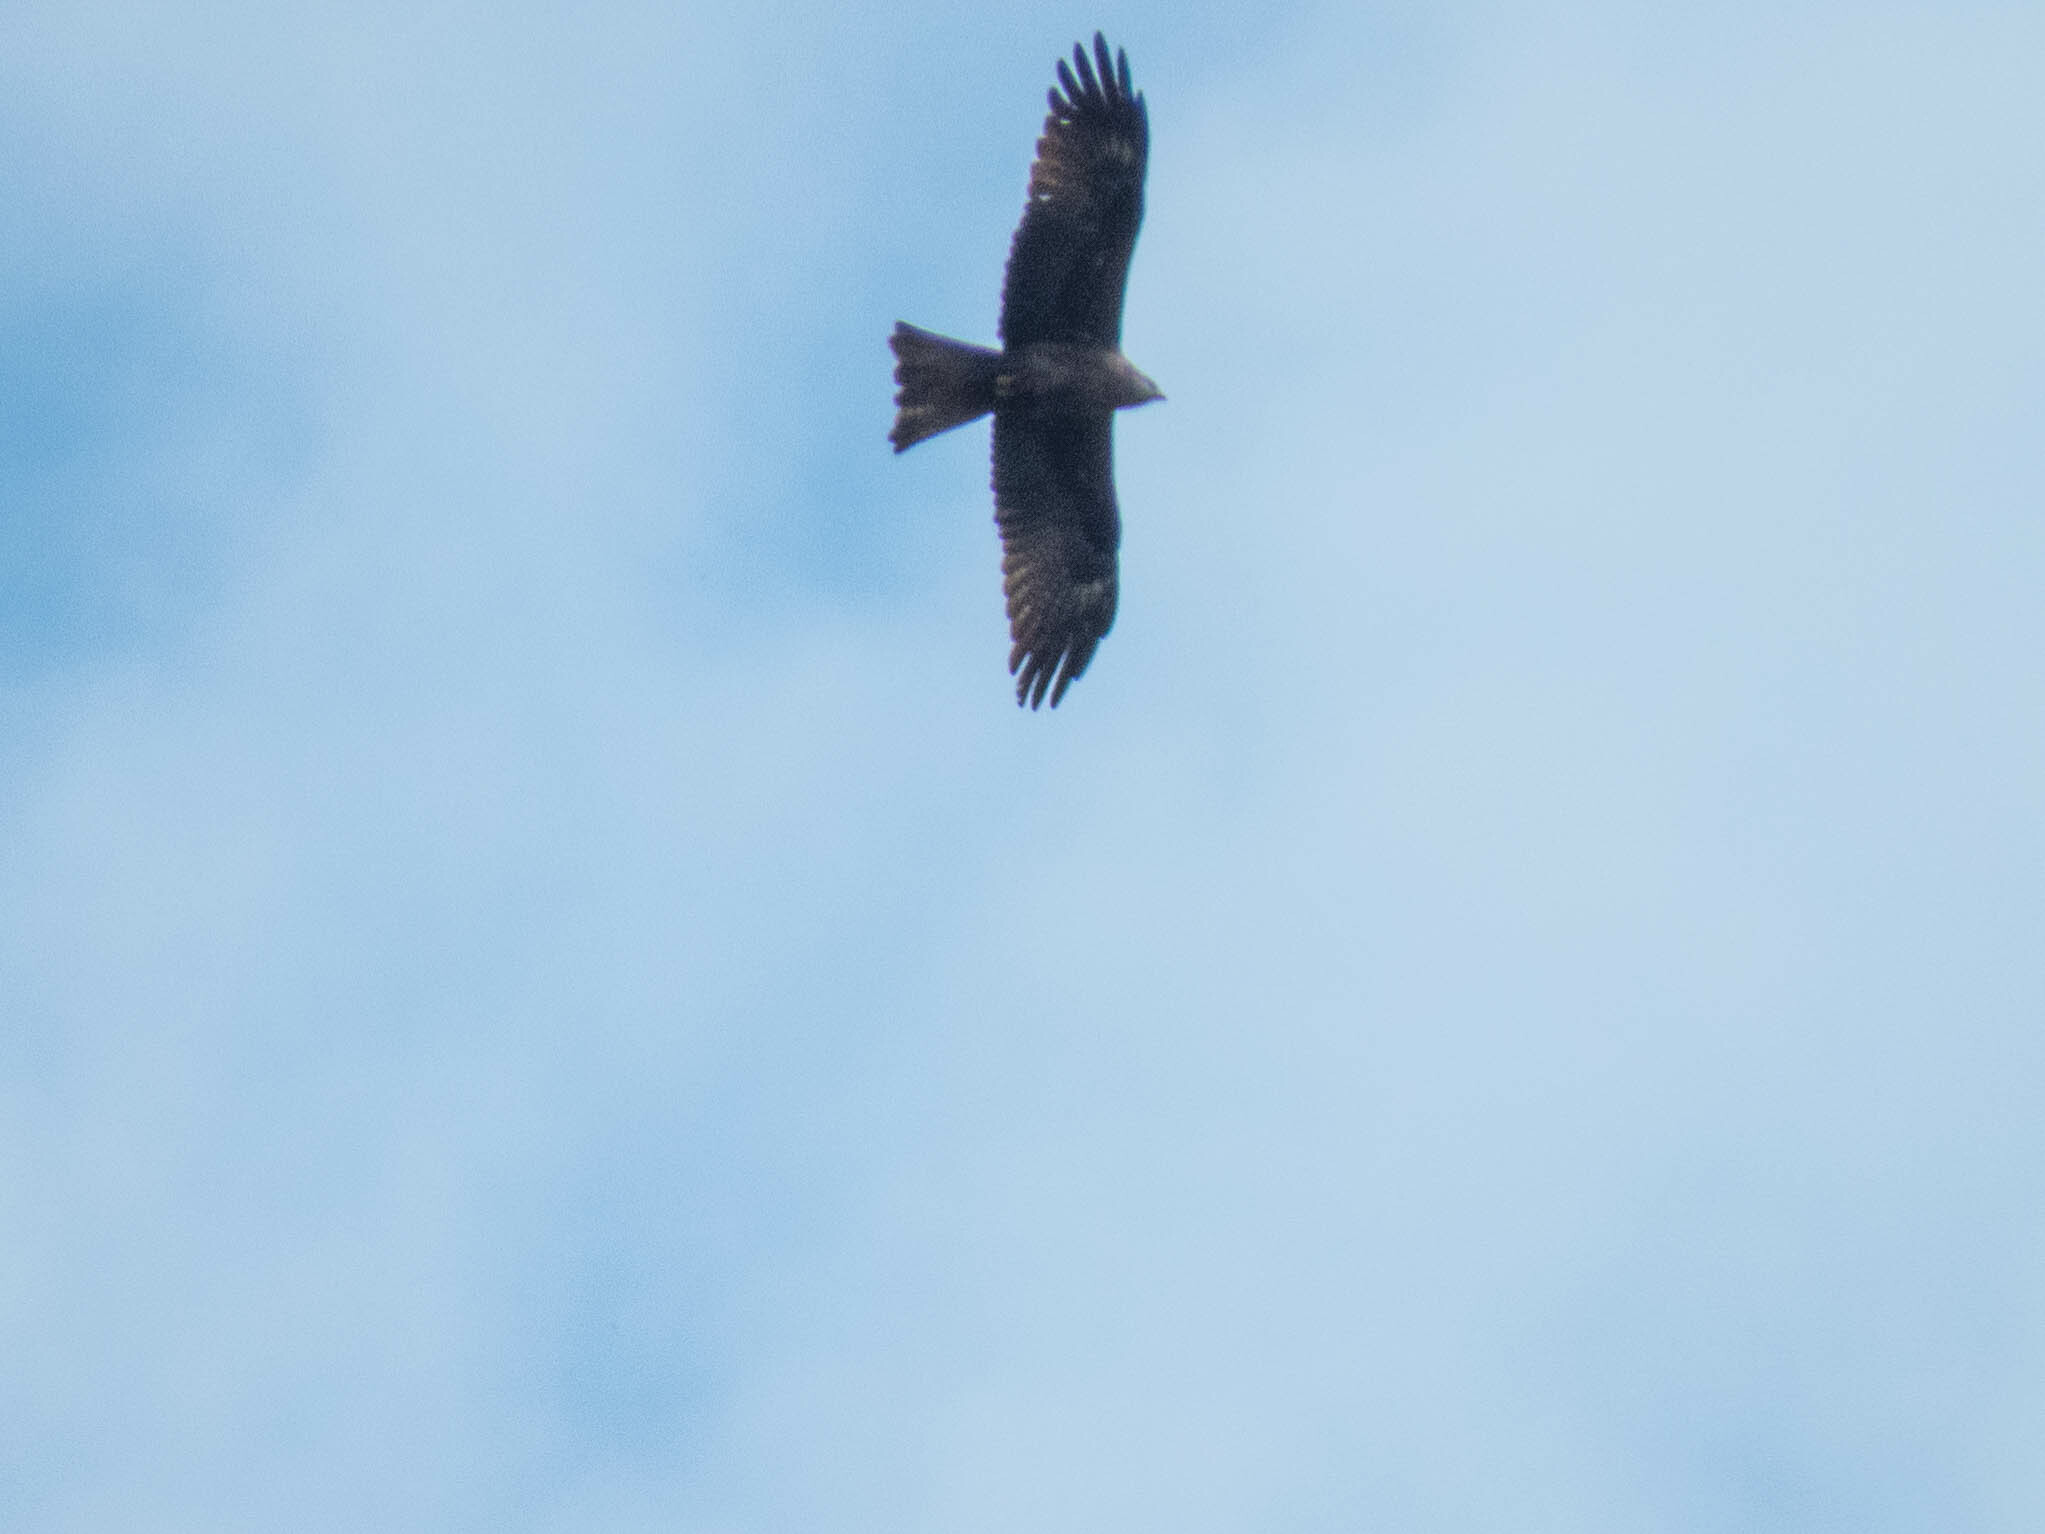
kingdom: Animalia
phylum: Chordata
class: Aves
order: Accipitriformes
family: Accipitridae
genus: Milvus
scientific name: Milvus migrans
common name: Black kite
